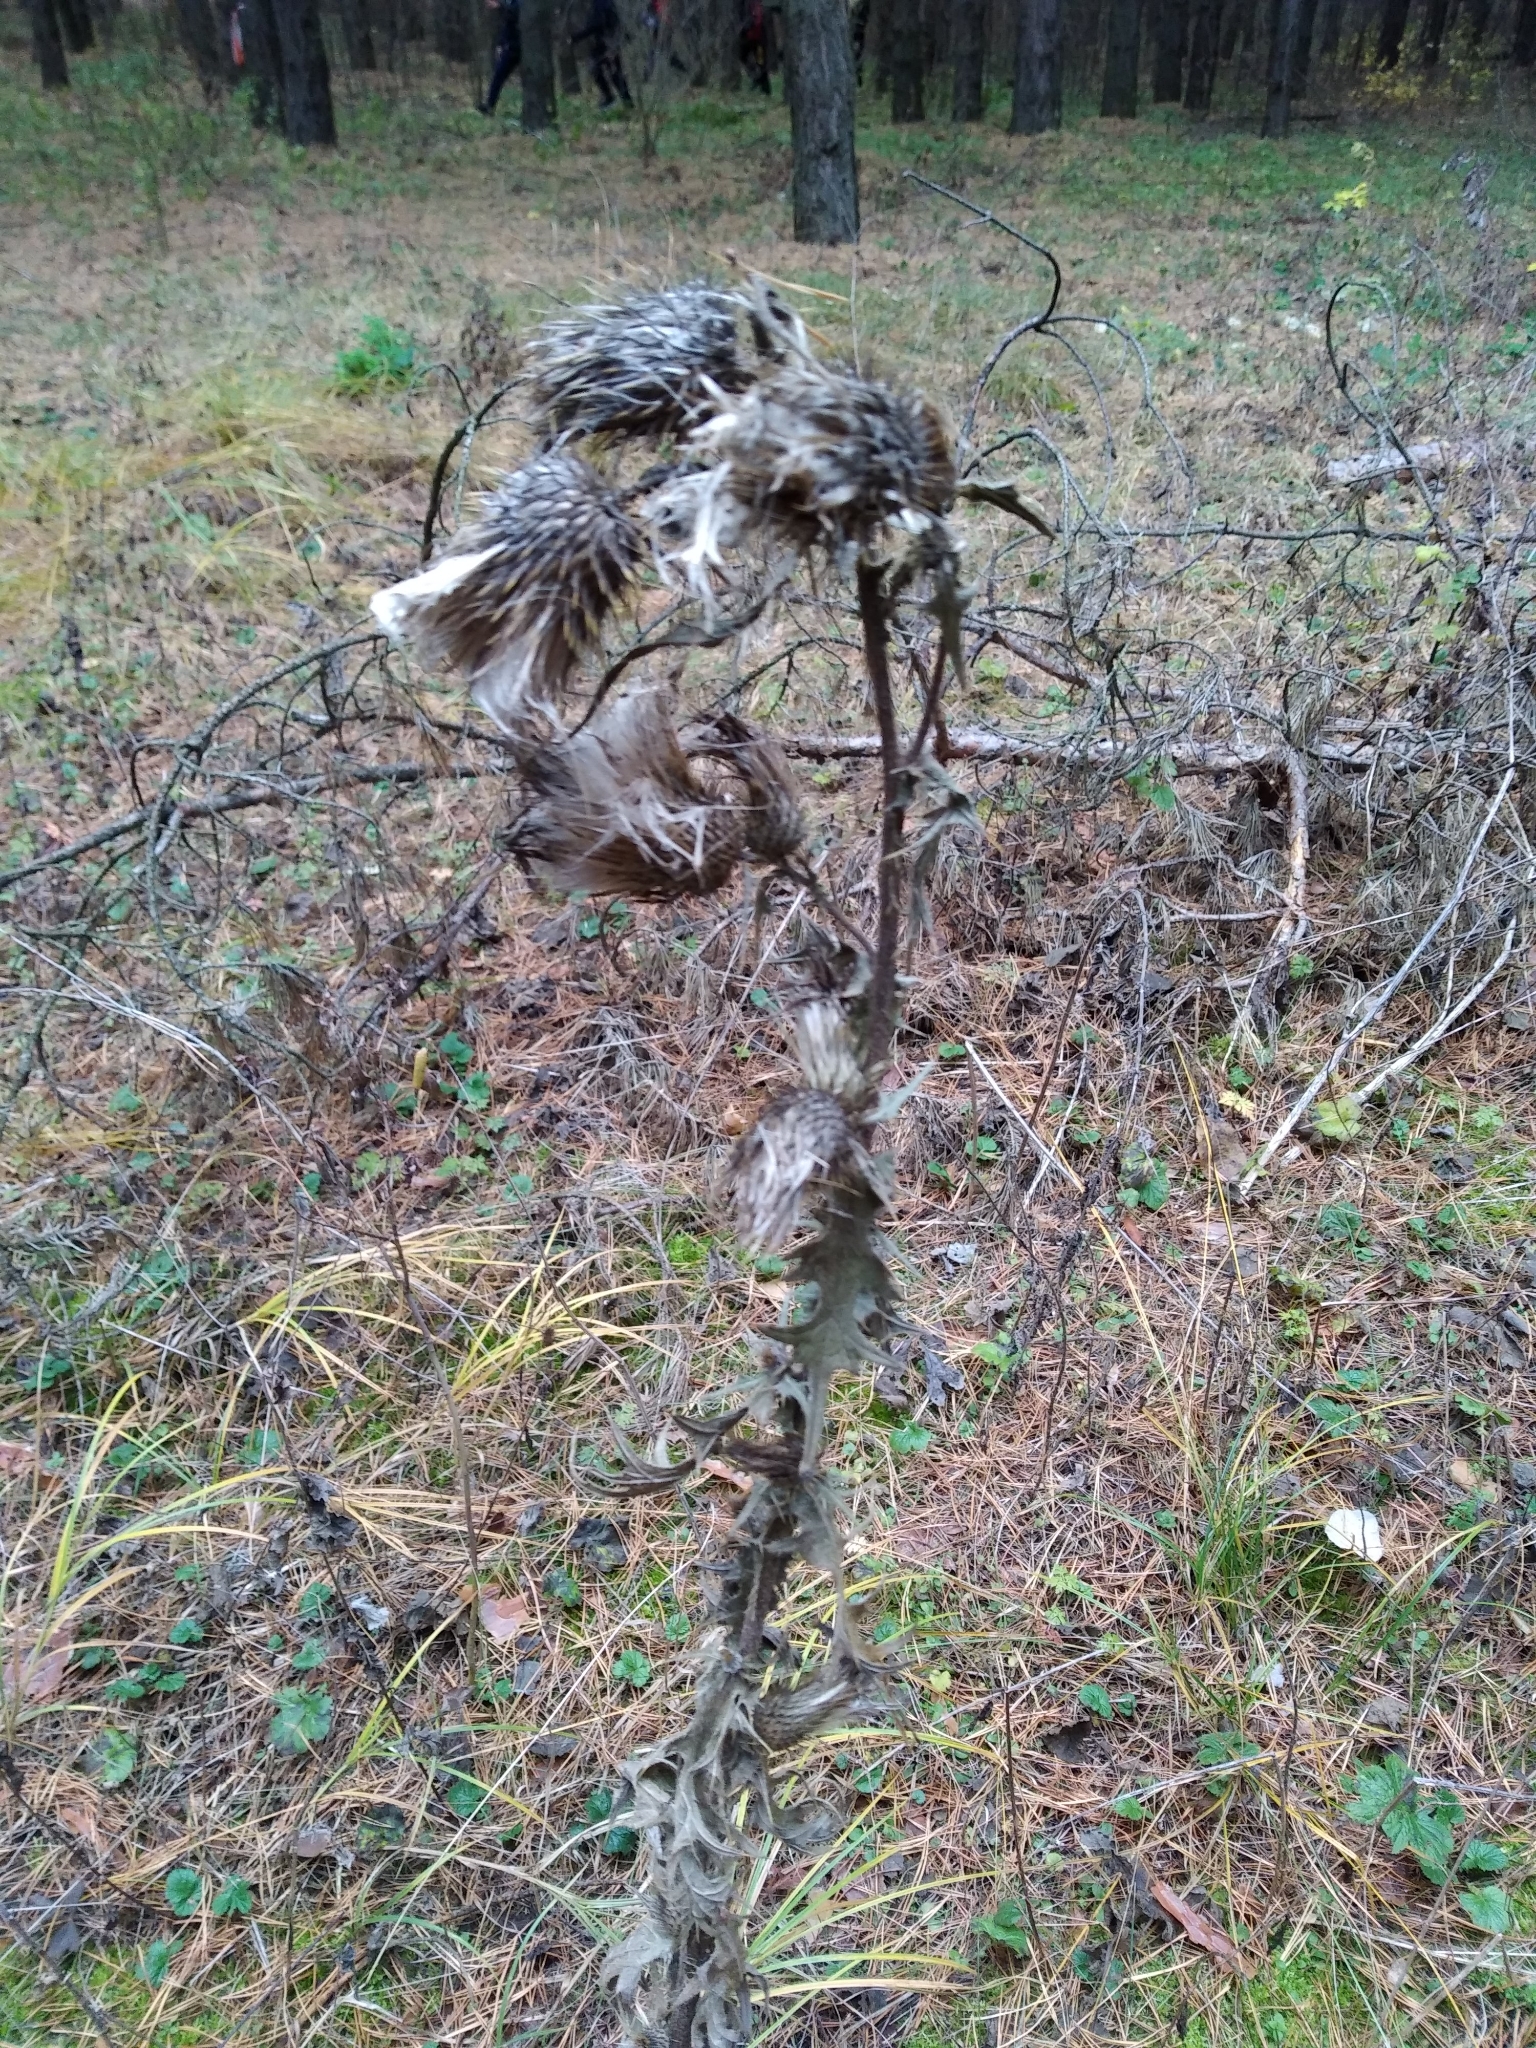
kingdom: Plantae
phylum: Tracheophyta
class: Magnoliopsida
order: Asterales
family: Asteraceae
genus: Cirsium
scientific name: Cirsium vulgare
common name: Bull thistle
